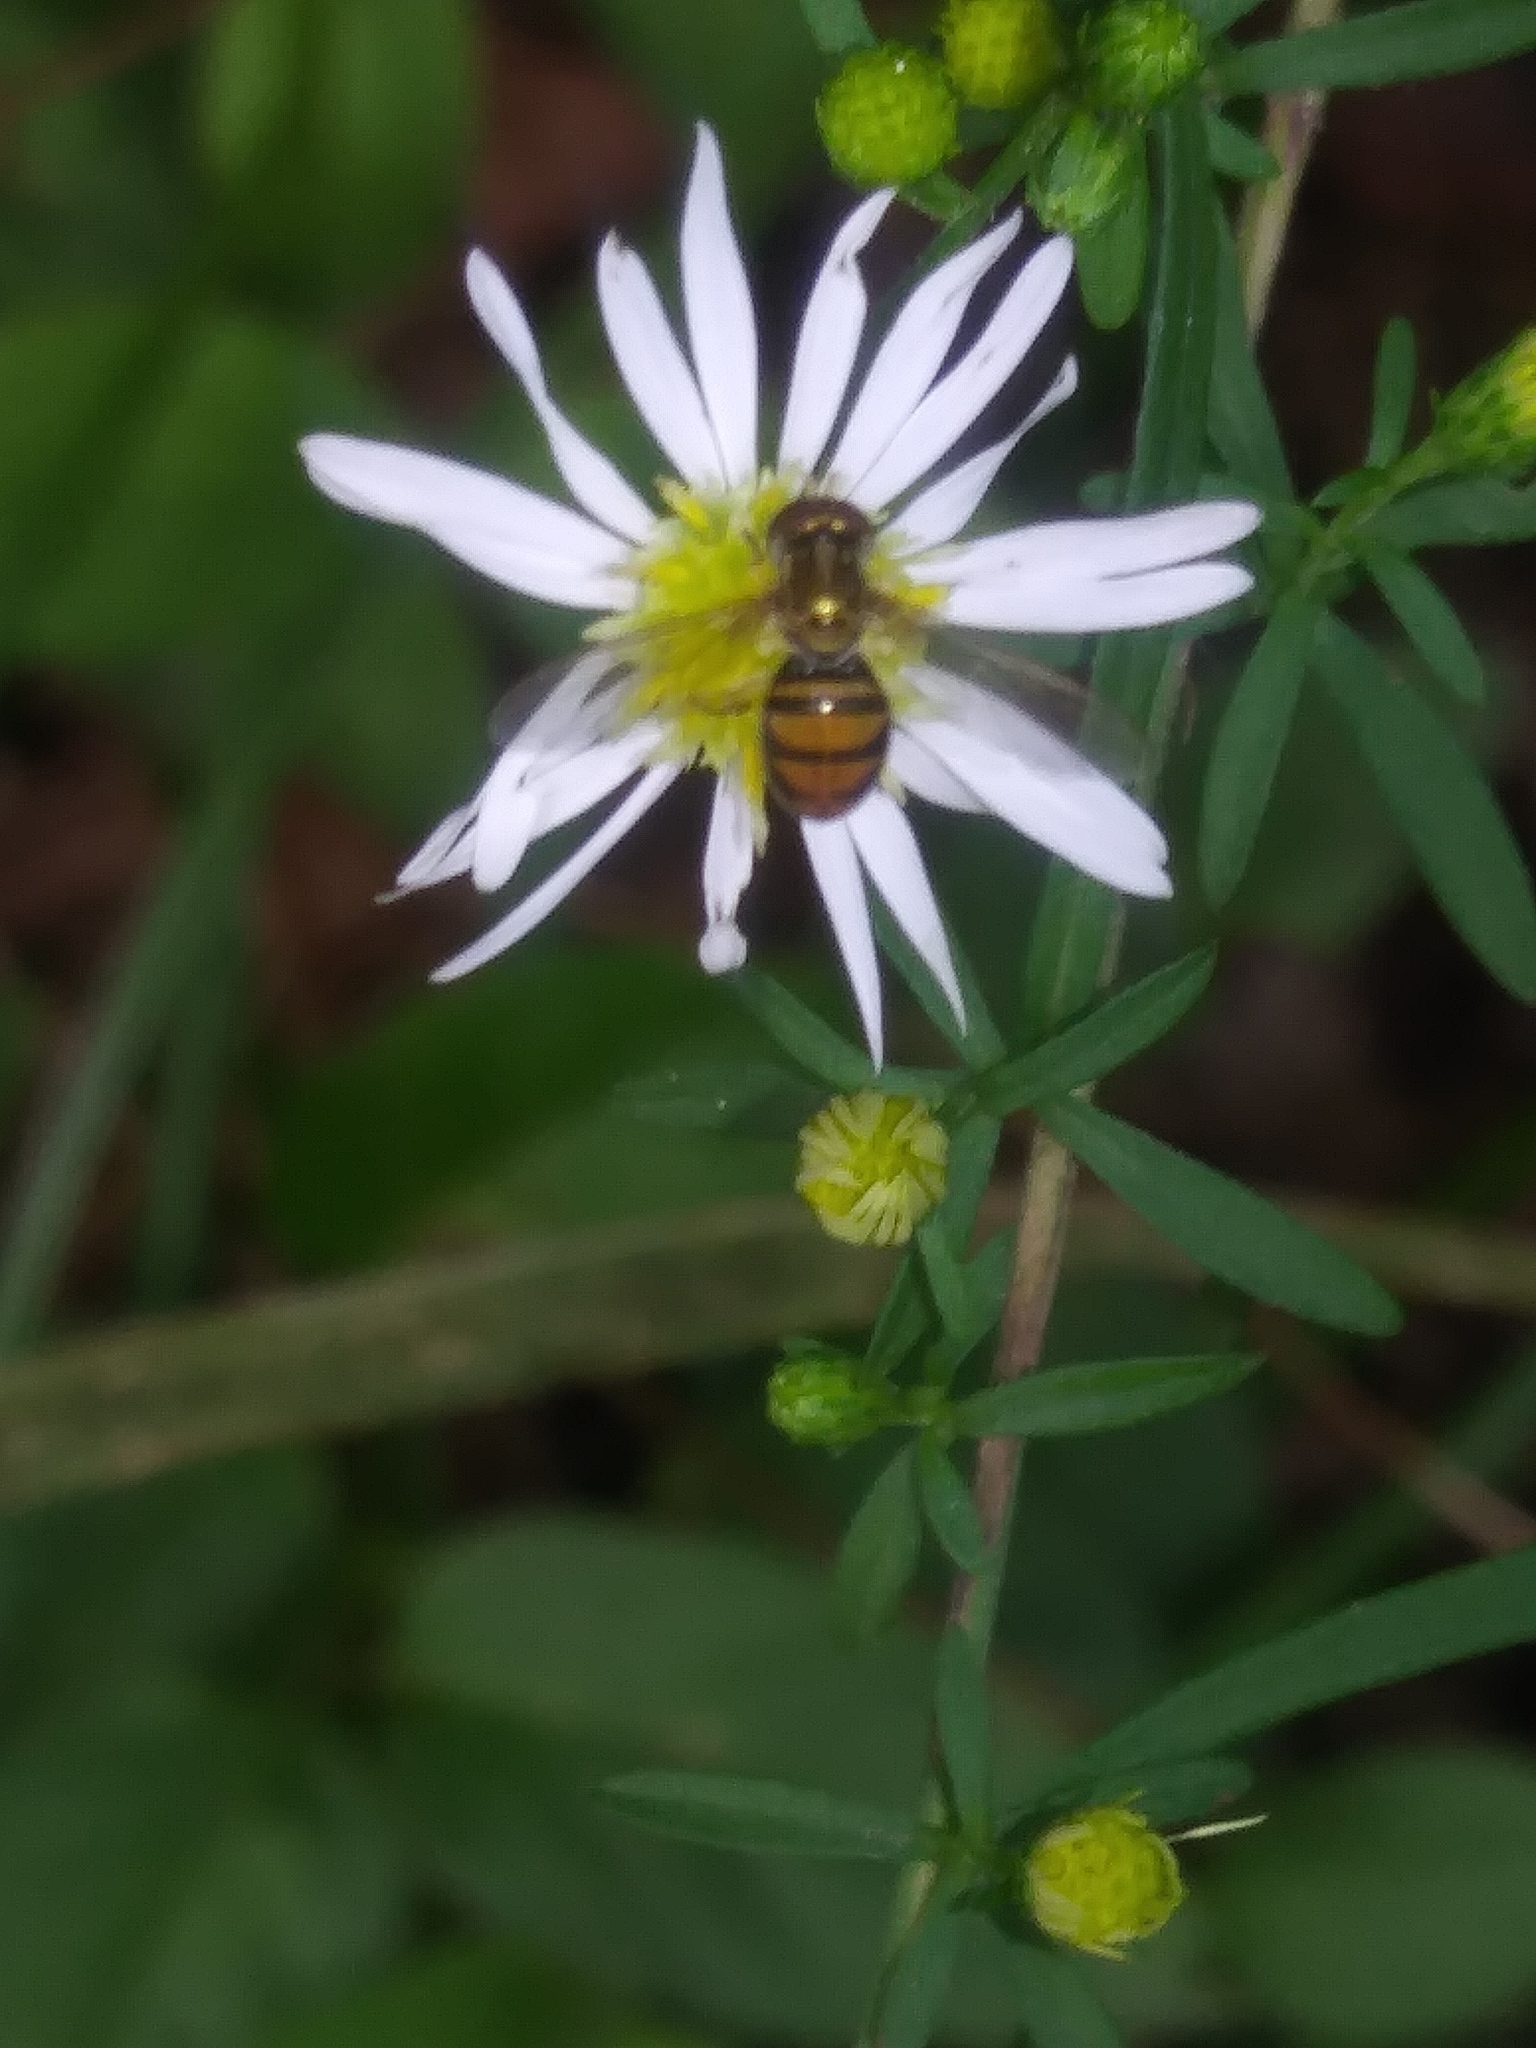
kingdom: Animalia
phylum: Arthropoda
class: Insecta
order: Diptera
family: Syrphidae
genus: Toxomerus
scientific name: Toxomerus marginatus
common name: Syrphid fly
